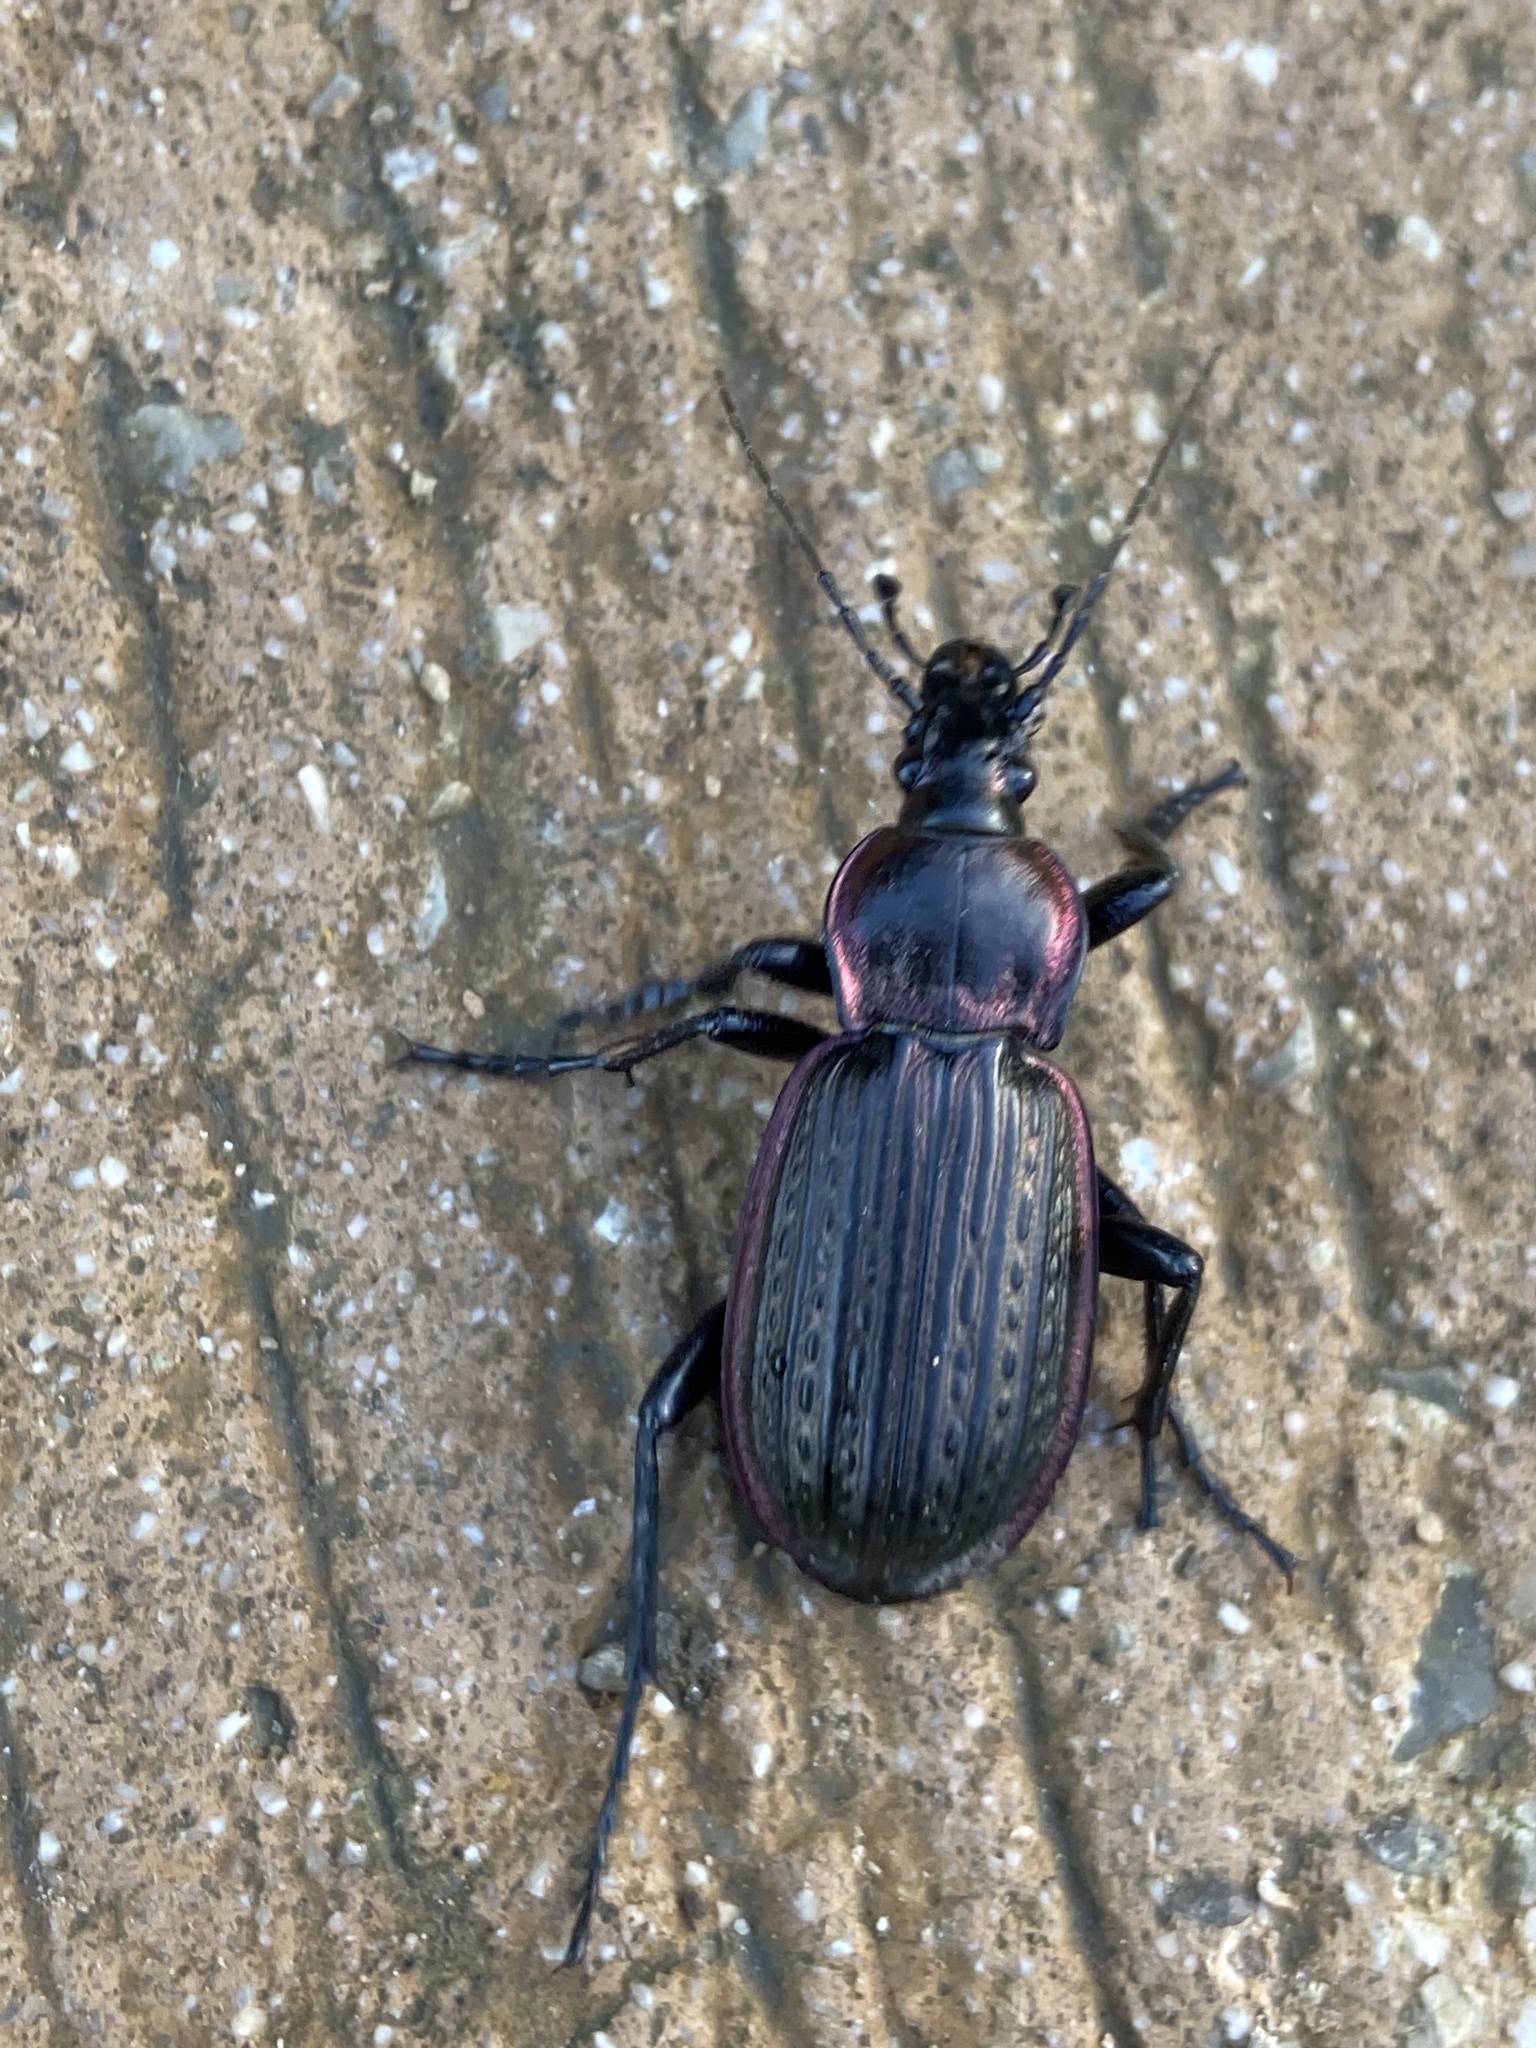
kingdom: Animalia
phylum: Arthropoda
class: Insecta
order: Coleoptera
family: Carabidae
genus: Carabus
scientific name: Carabus morbillosus
